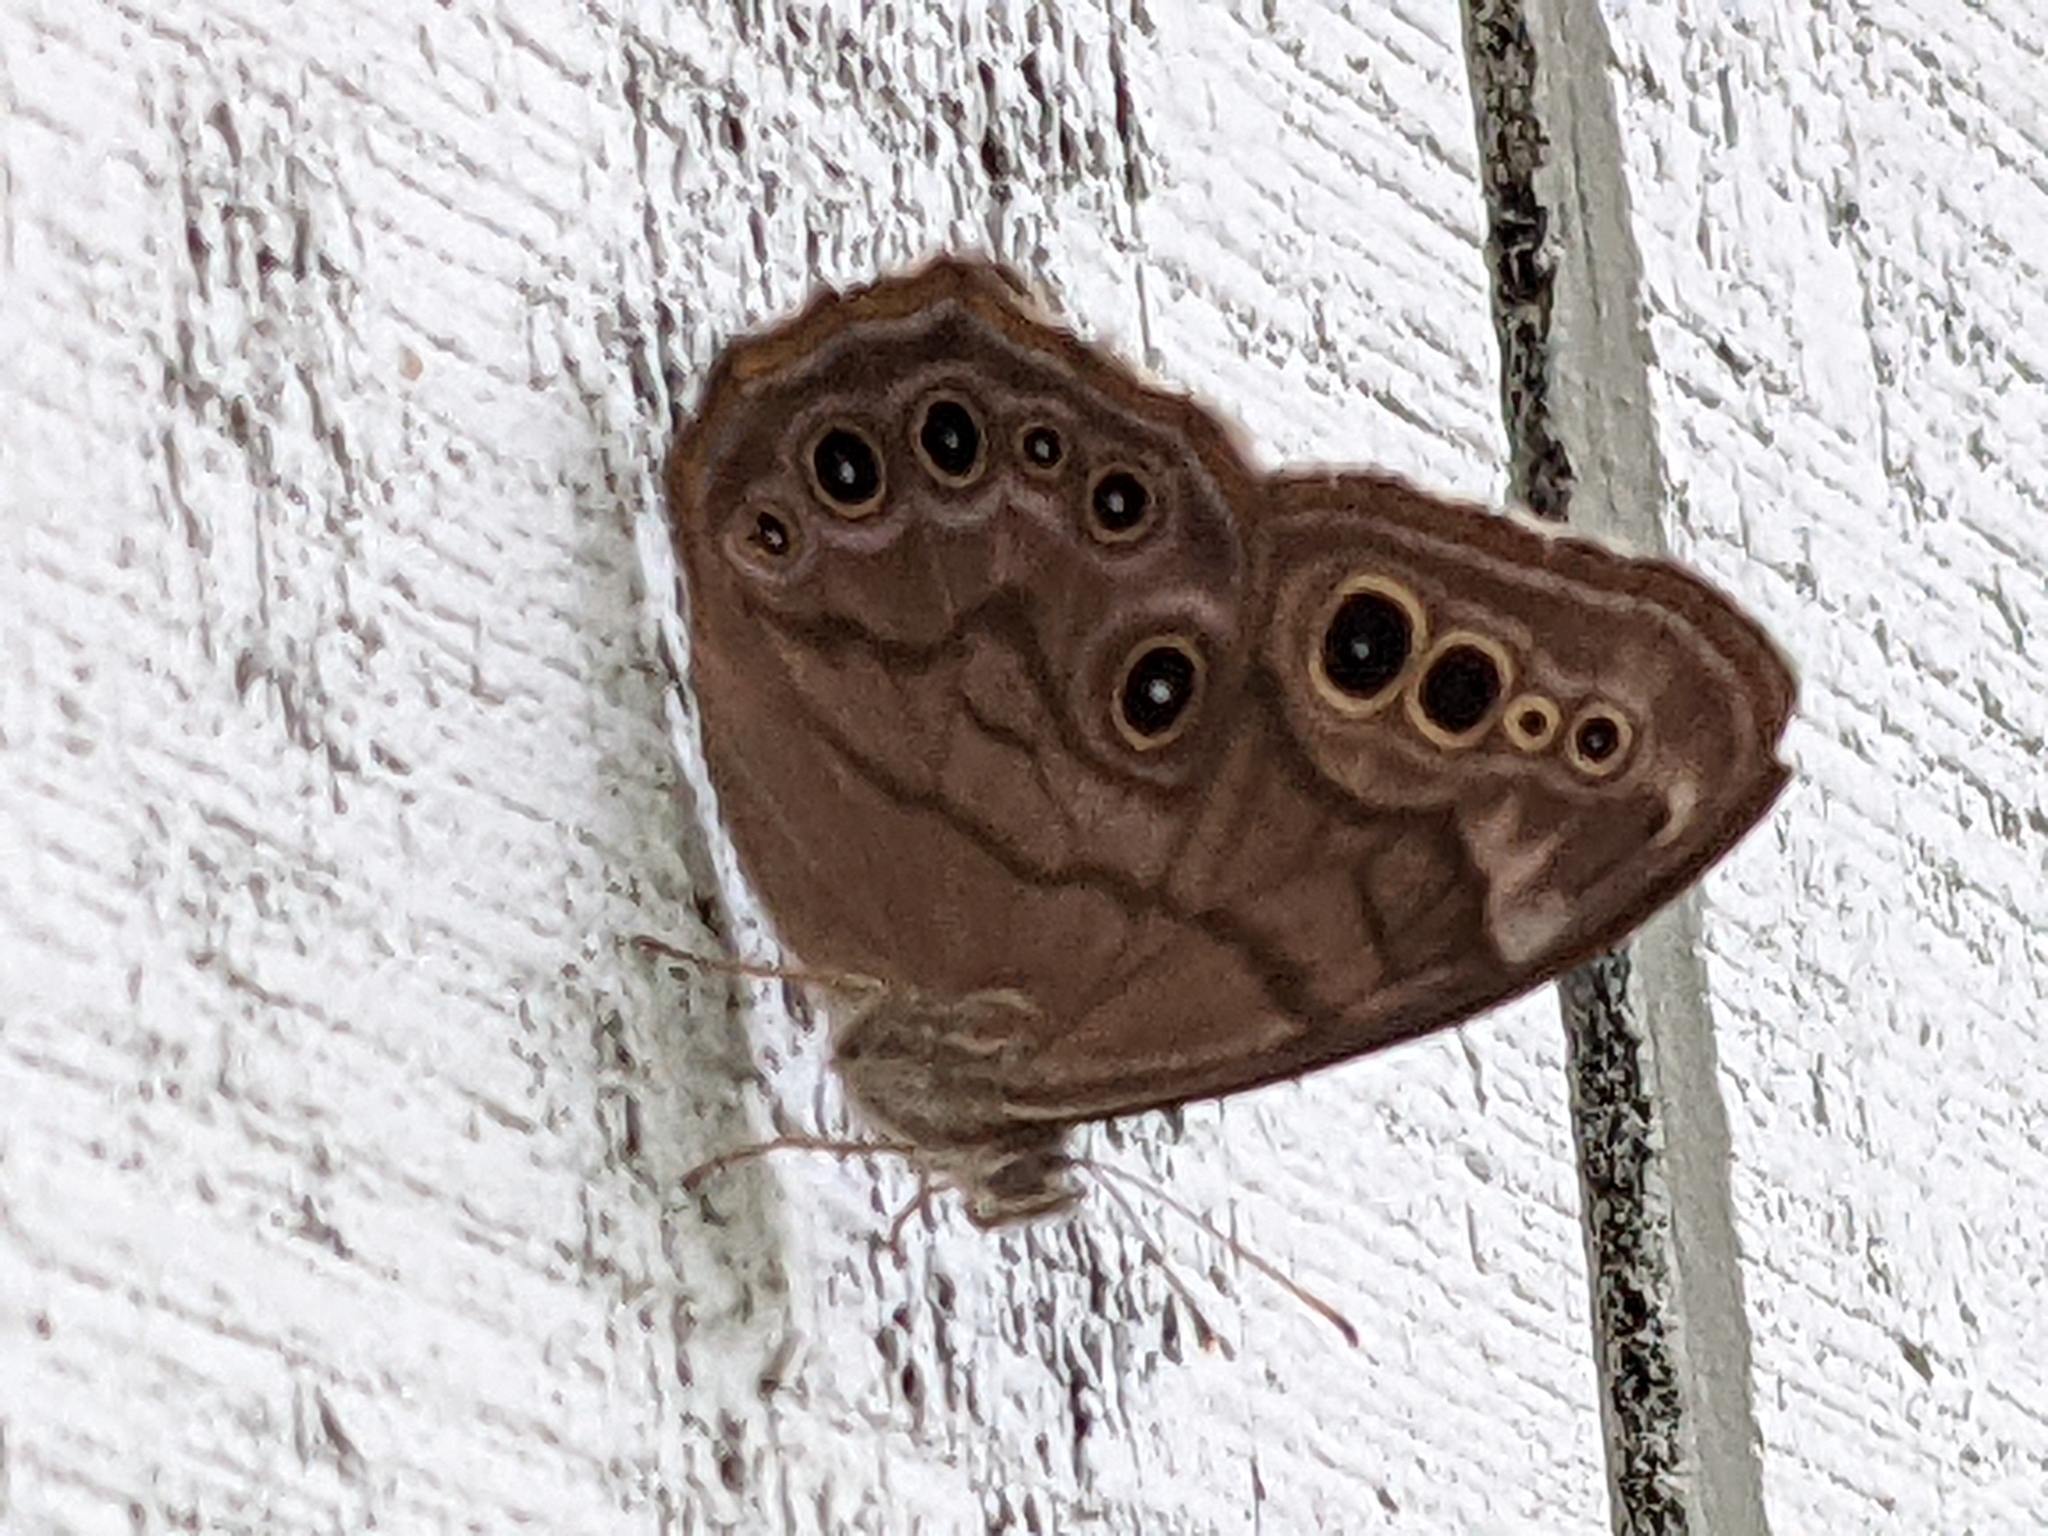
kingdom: Animalia
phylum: Arthropoda
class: Insecta
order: Lepidoptera
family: Nymphalidae
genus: Lethe
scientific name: Lethe anthedon
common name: Northern pearly-eye
